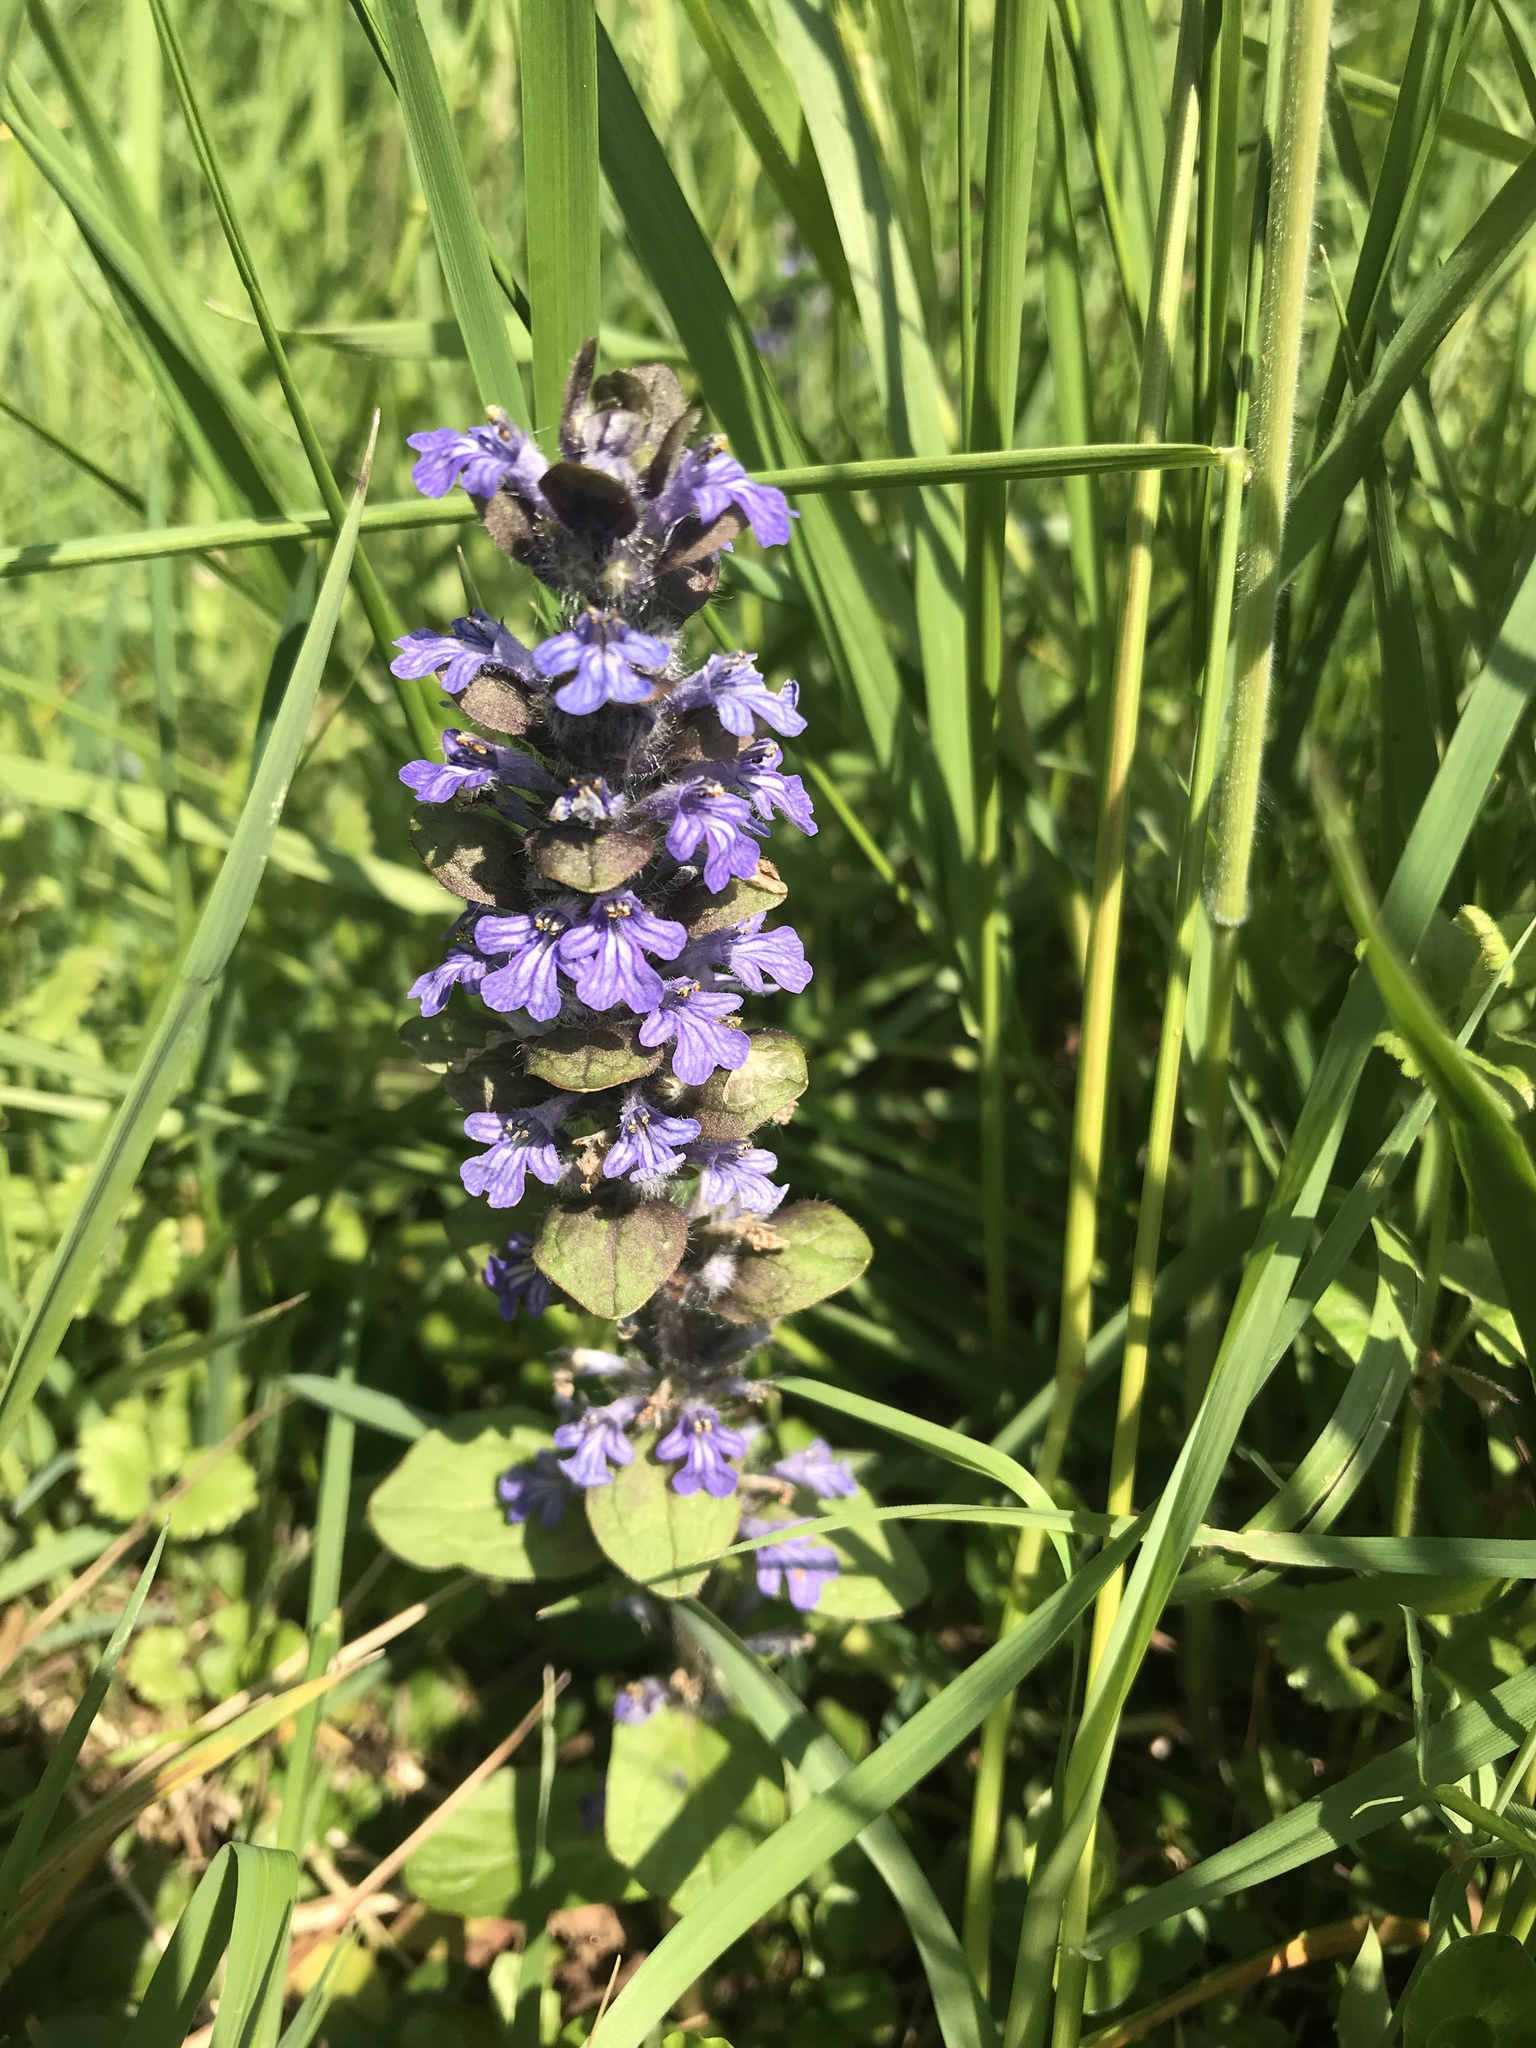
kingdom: Plantae
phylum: Tracheophyta
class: Magnoliopsida
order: Lamiales
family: Lamiaceae
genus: Ajuga
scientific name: Ajuga reptans
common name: Bugle
